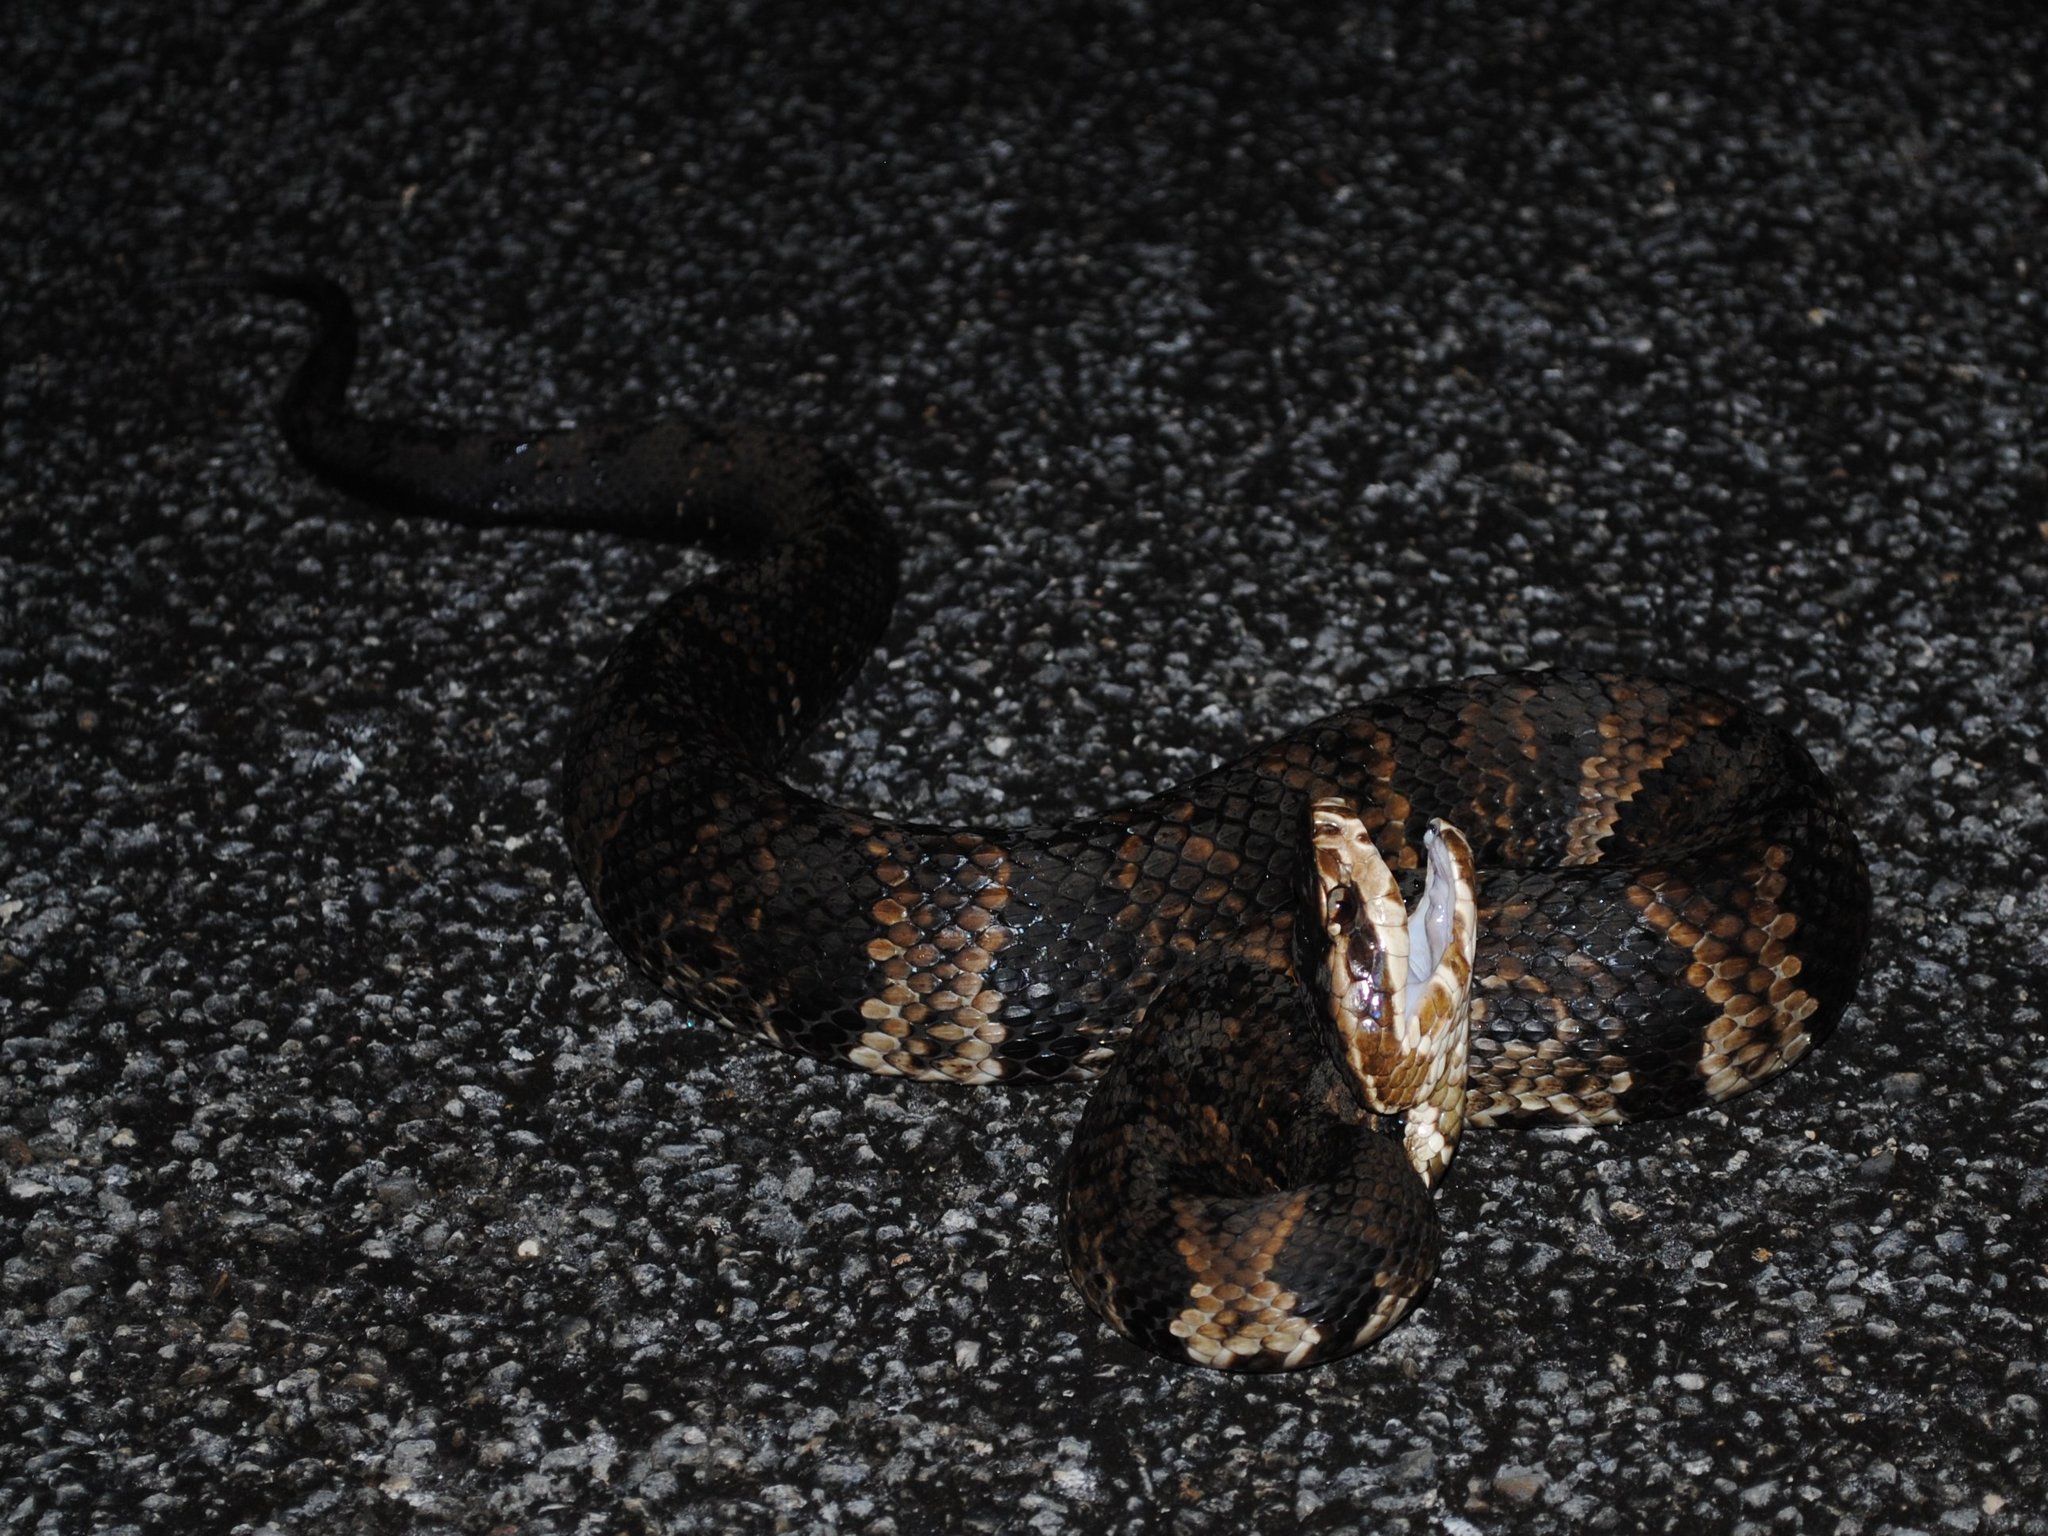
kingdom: Animalia
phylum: Chordata
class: Squamata
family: Viperidae
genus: Agkistrodon
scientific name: Agkistrodon conanti
